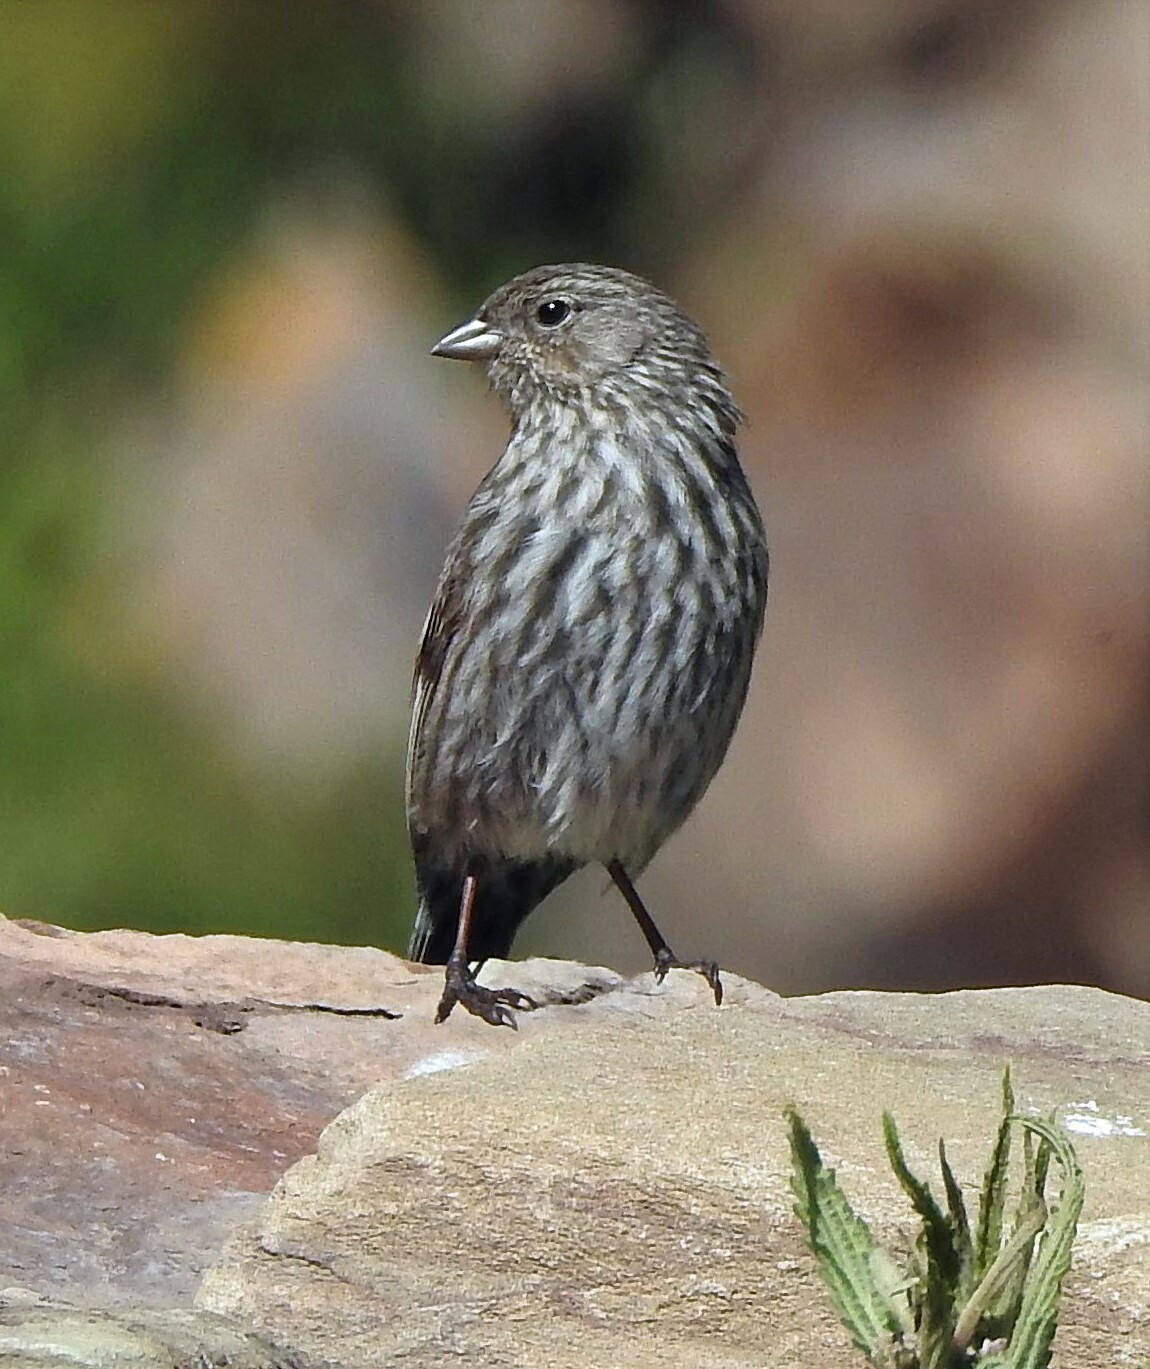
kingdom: Animalia
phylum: Chordata
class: Aves
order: Passeriformes
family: Thraupidae
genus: Geospizopsis
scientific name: Geospizopsis unicolor
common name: Plumbeous sierra-finch
